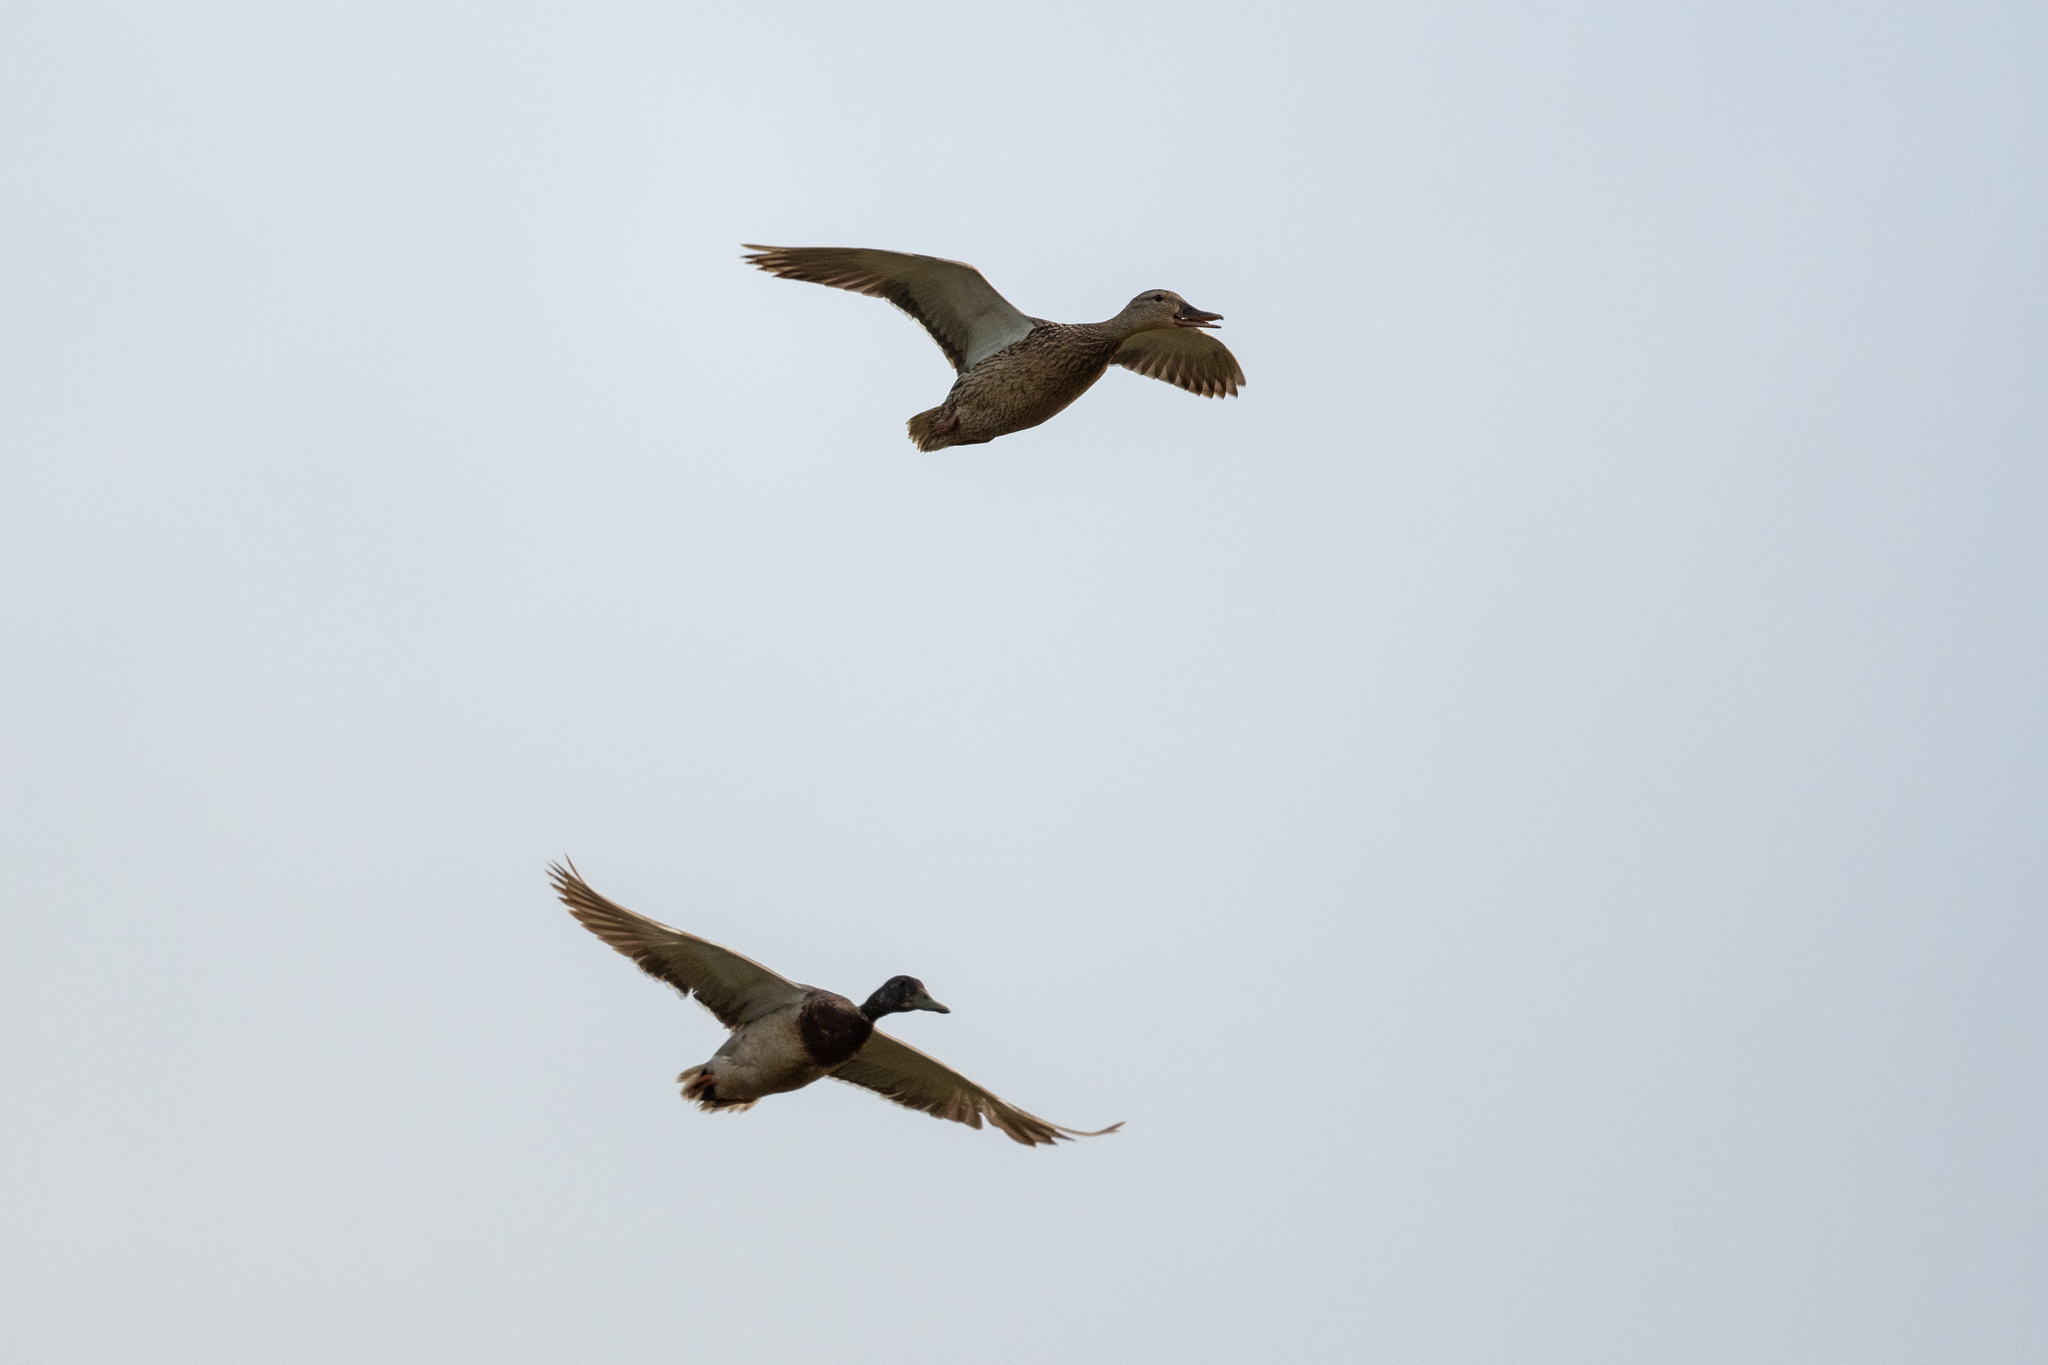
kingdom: Animalia
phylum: Chordata
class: Aves
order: Anseriformes
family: Anatidae
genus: Anas
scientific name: Anas platyrhynchos
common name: Mallard
